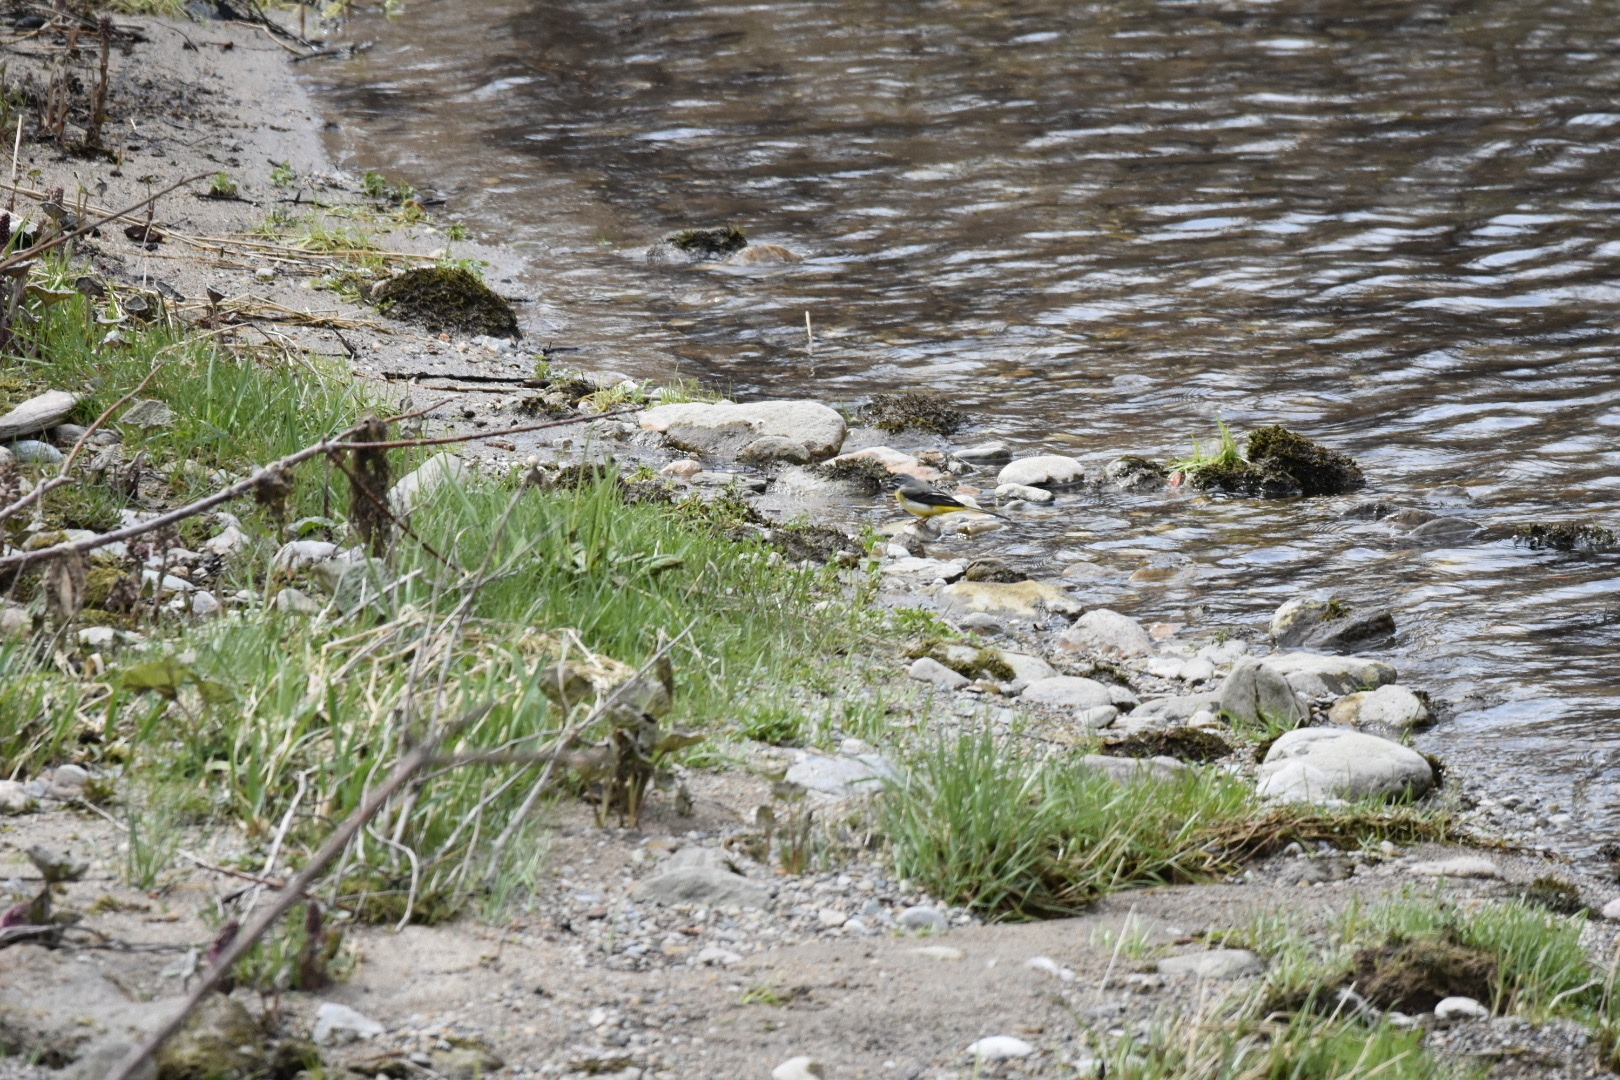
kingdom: Animalia
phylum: Chordata
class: Aves
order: Passeriformes
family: Motacillidae
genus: Motacilla
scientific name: Motacilla cinerea
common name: Grey wagtail
